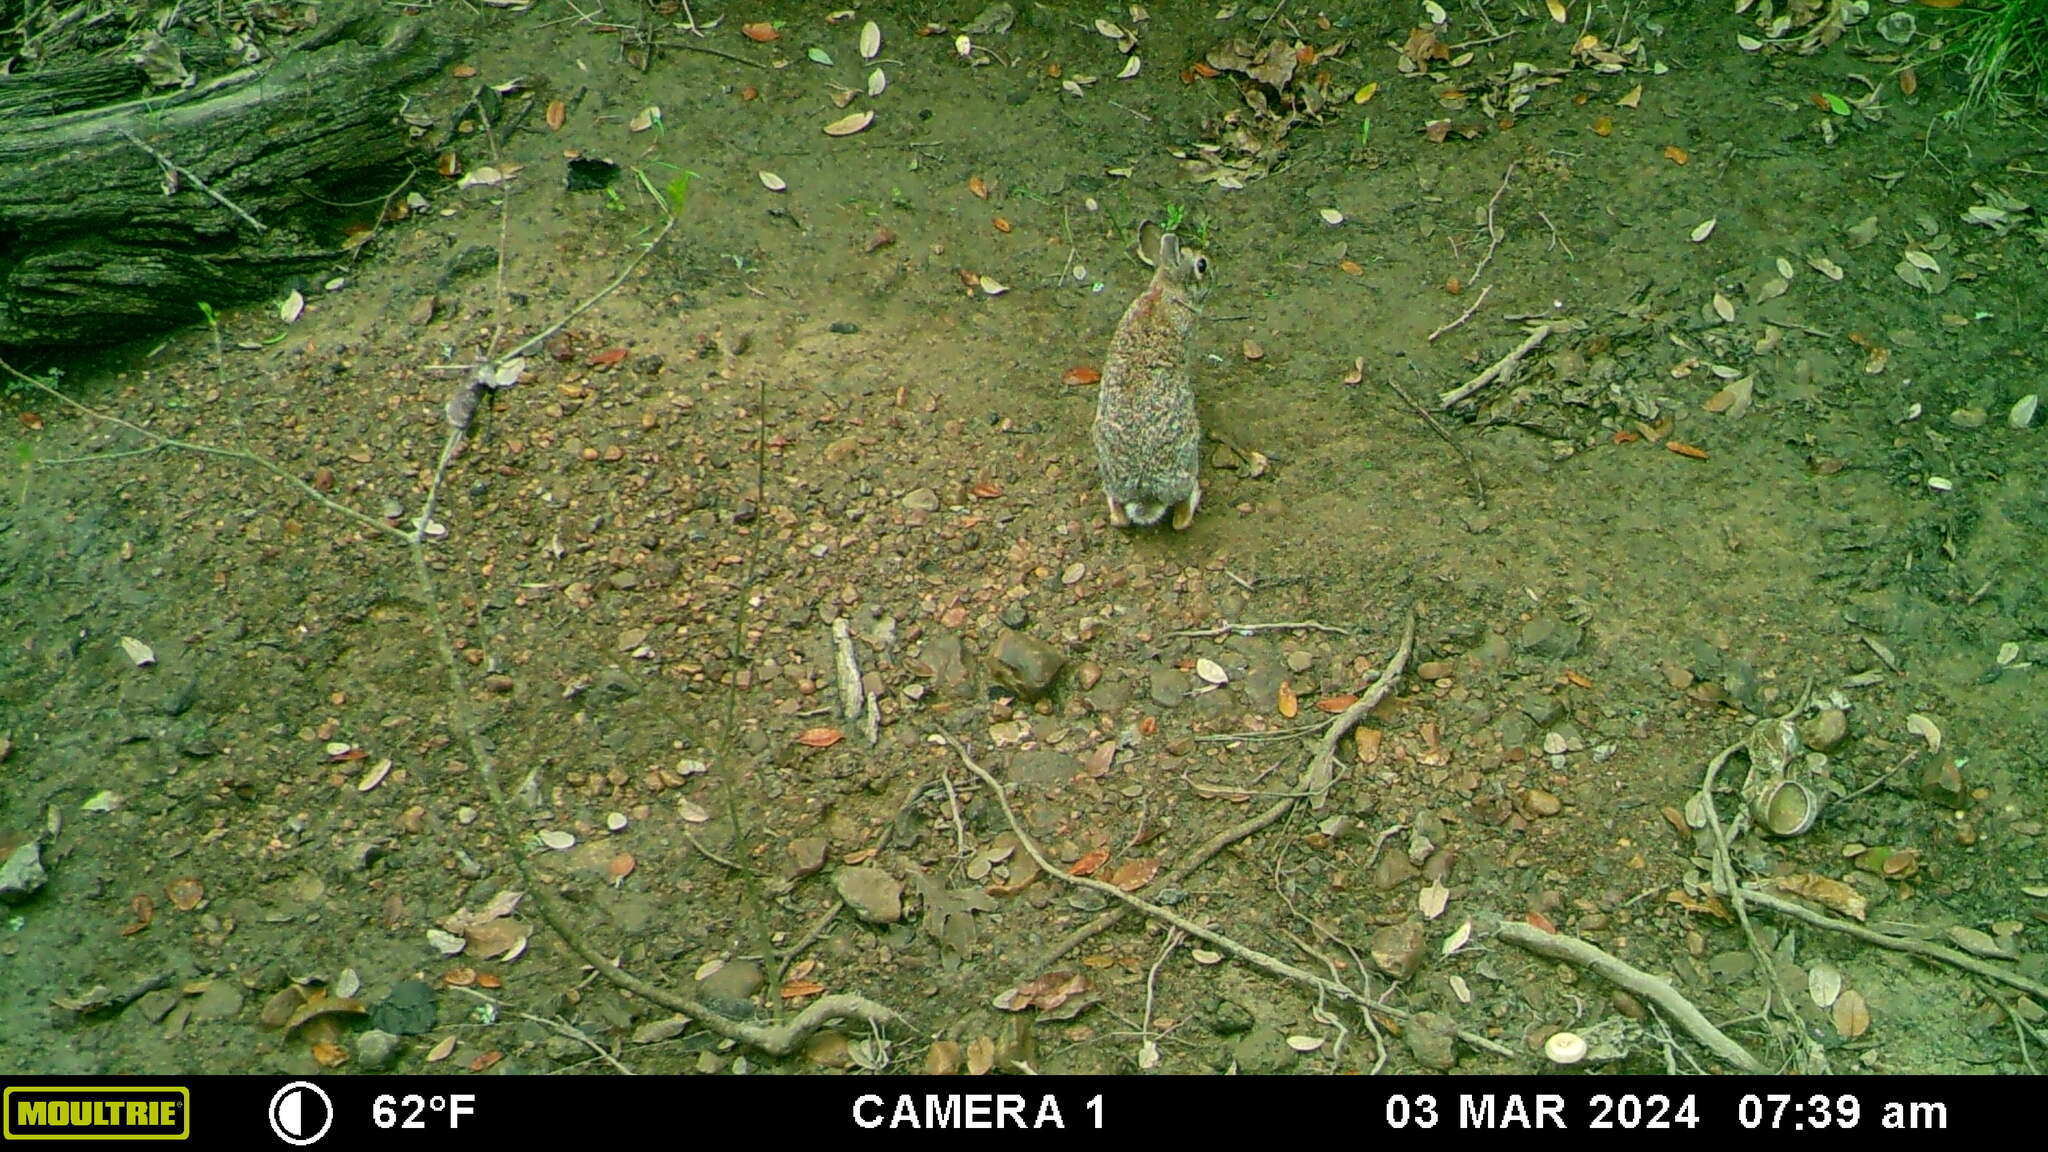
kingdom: Animalia
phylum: Chordata
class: Mammalia
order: Lagomorpha
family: Leporidae
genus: Sylvilagus
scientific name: Sylvilagus floridanus
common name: Eastern cottontail
